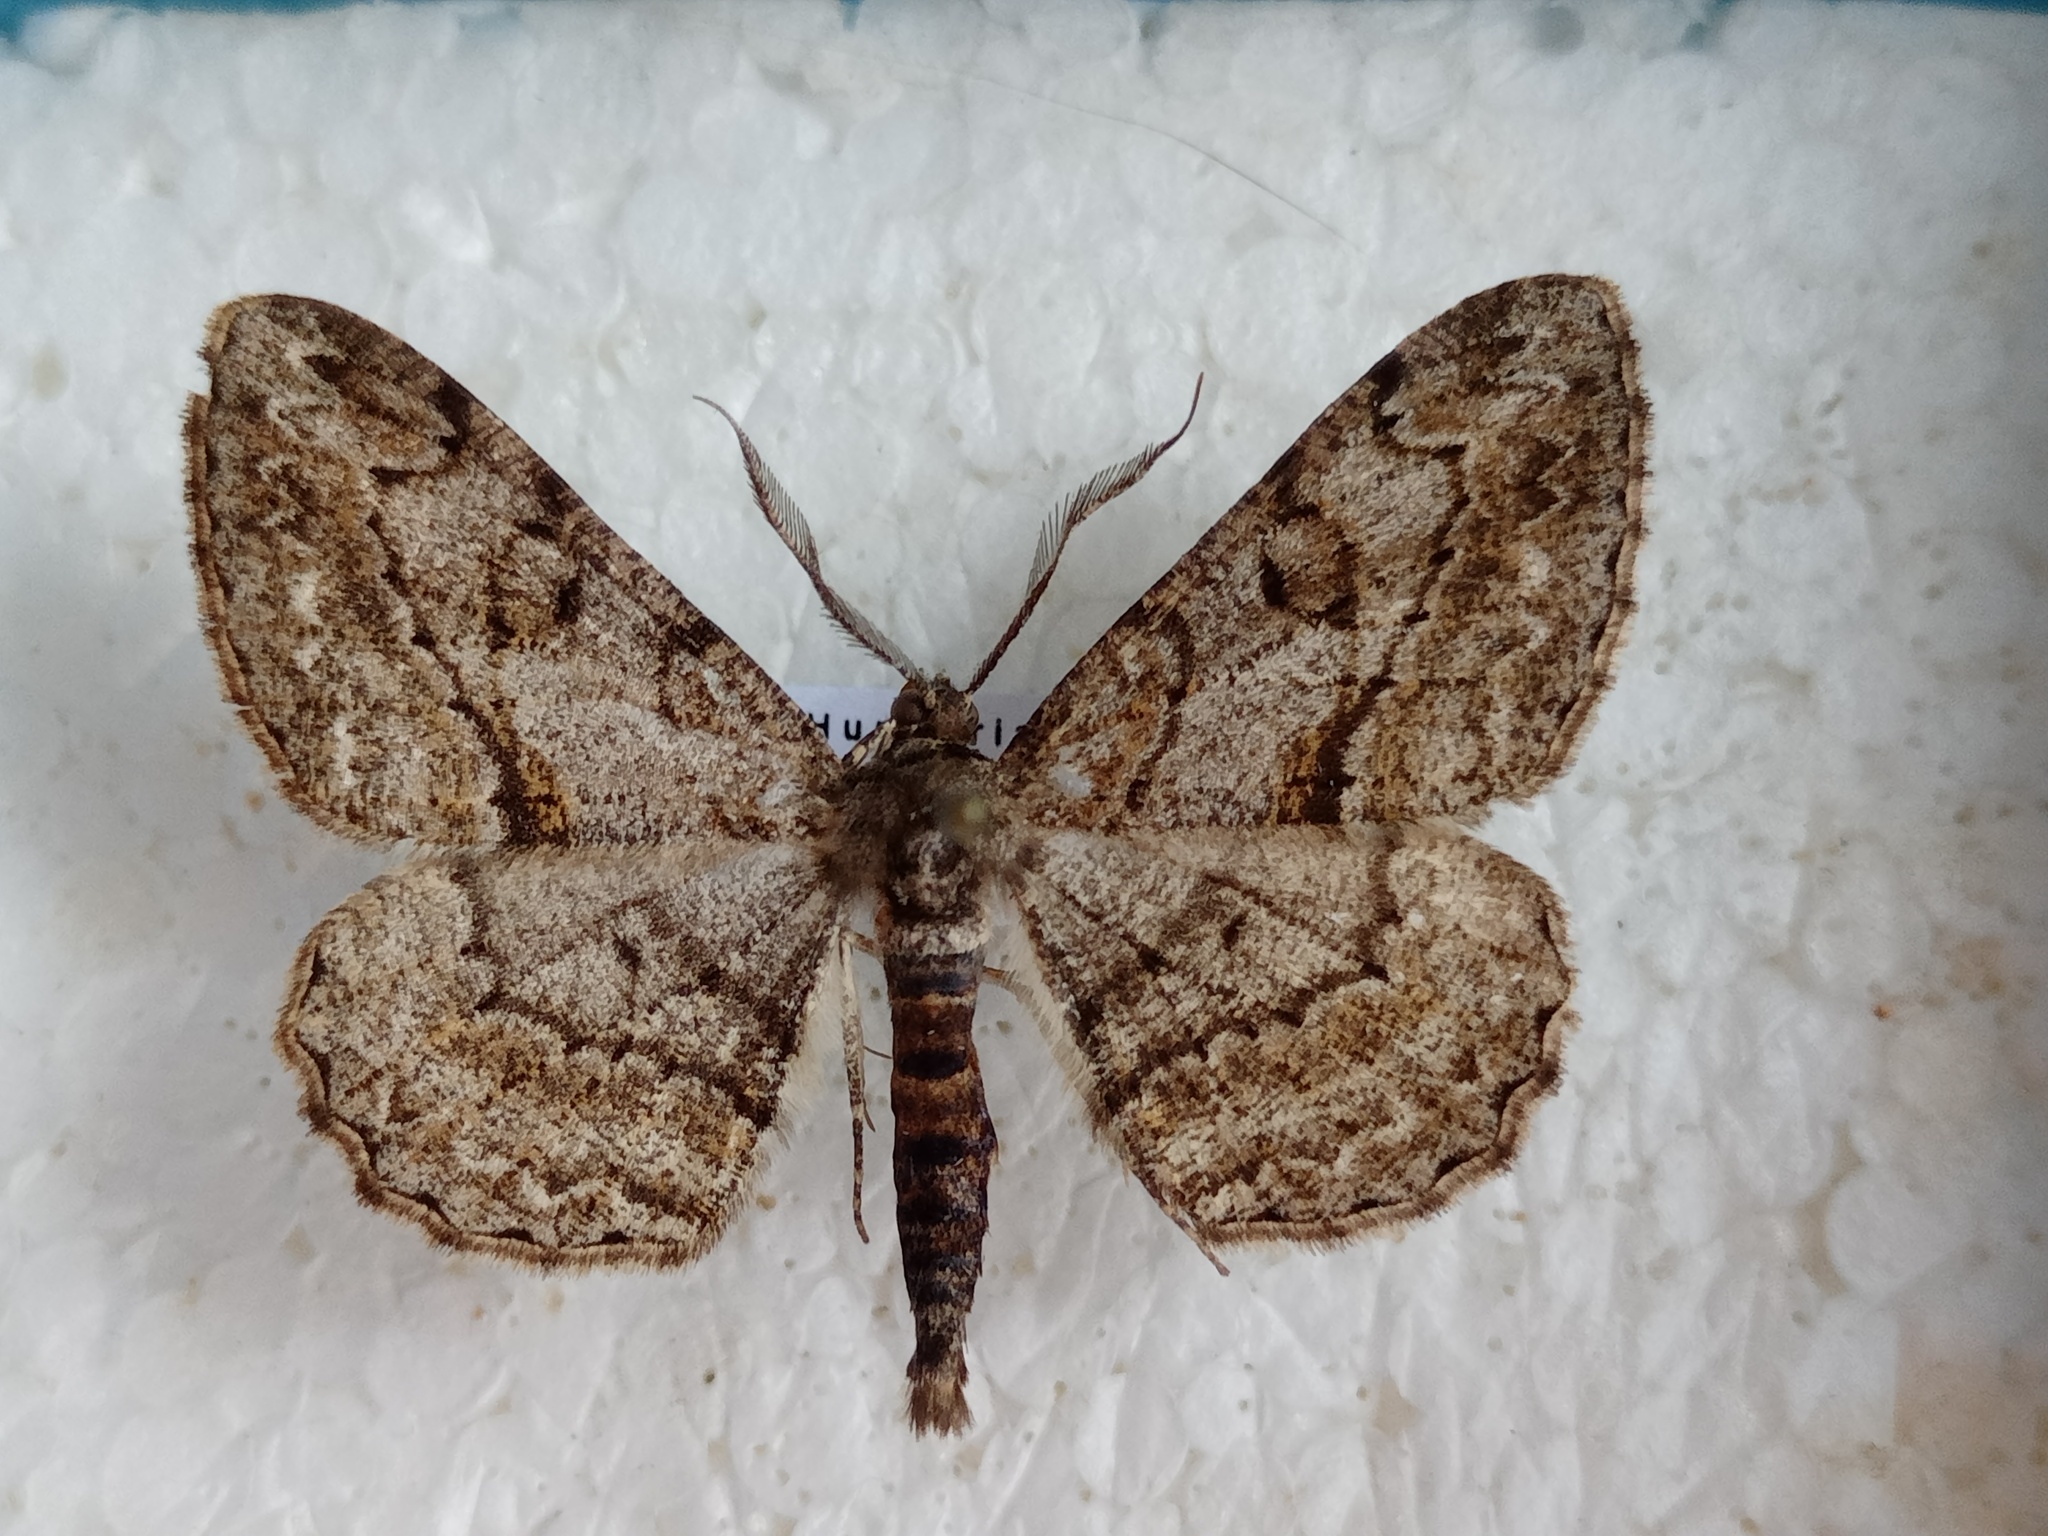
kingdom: Animalia
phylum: Arthropoda
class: Insecta
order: Lepidoptera
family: Geometridae
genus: Peribatodes
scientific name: Peribatodes rhomboidaria
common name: Willow beauty
